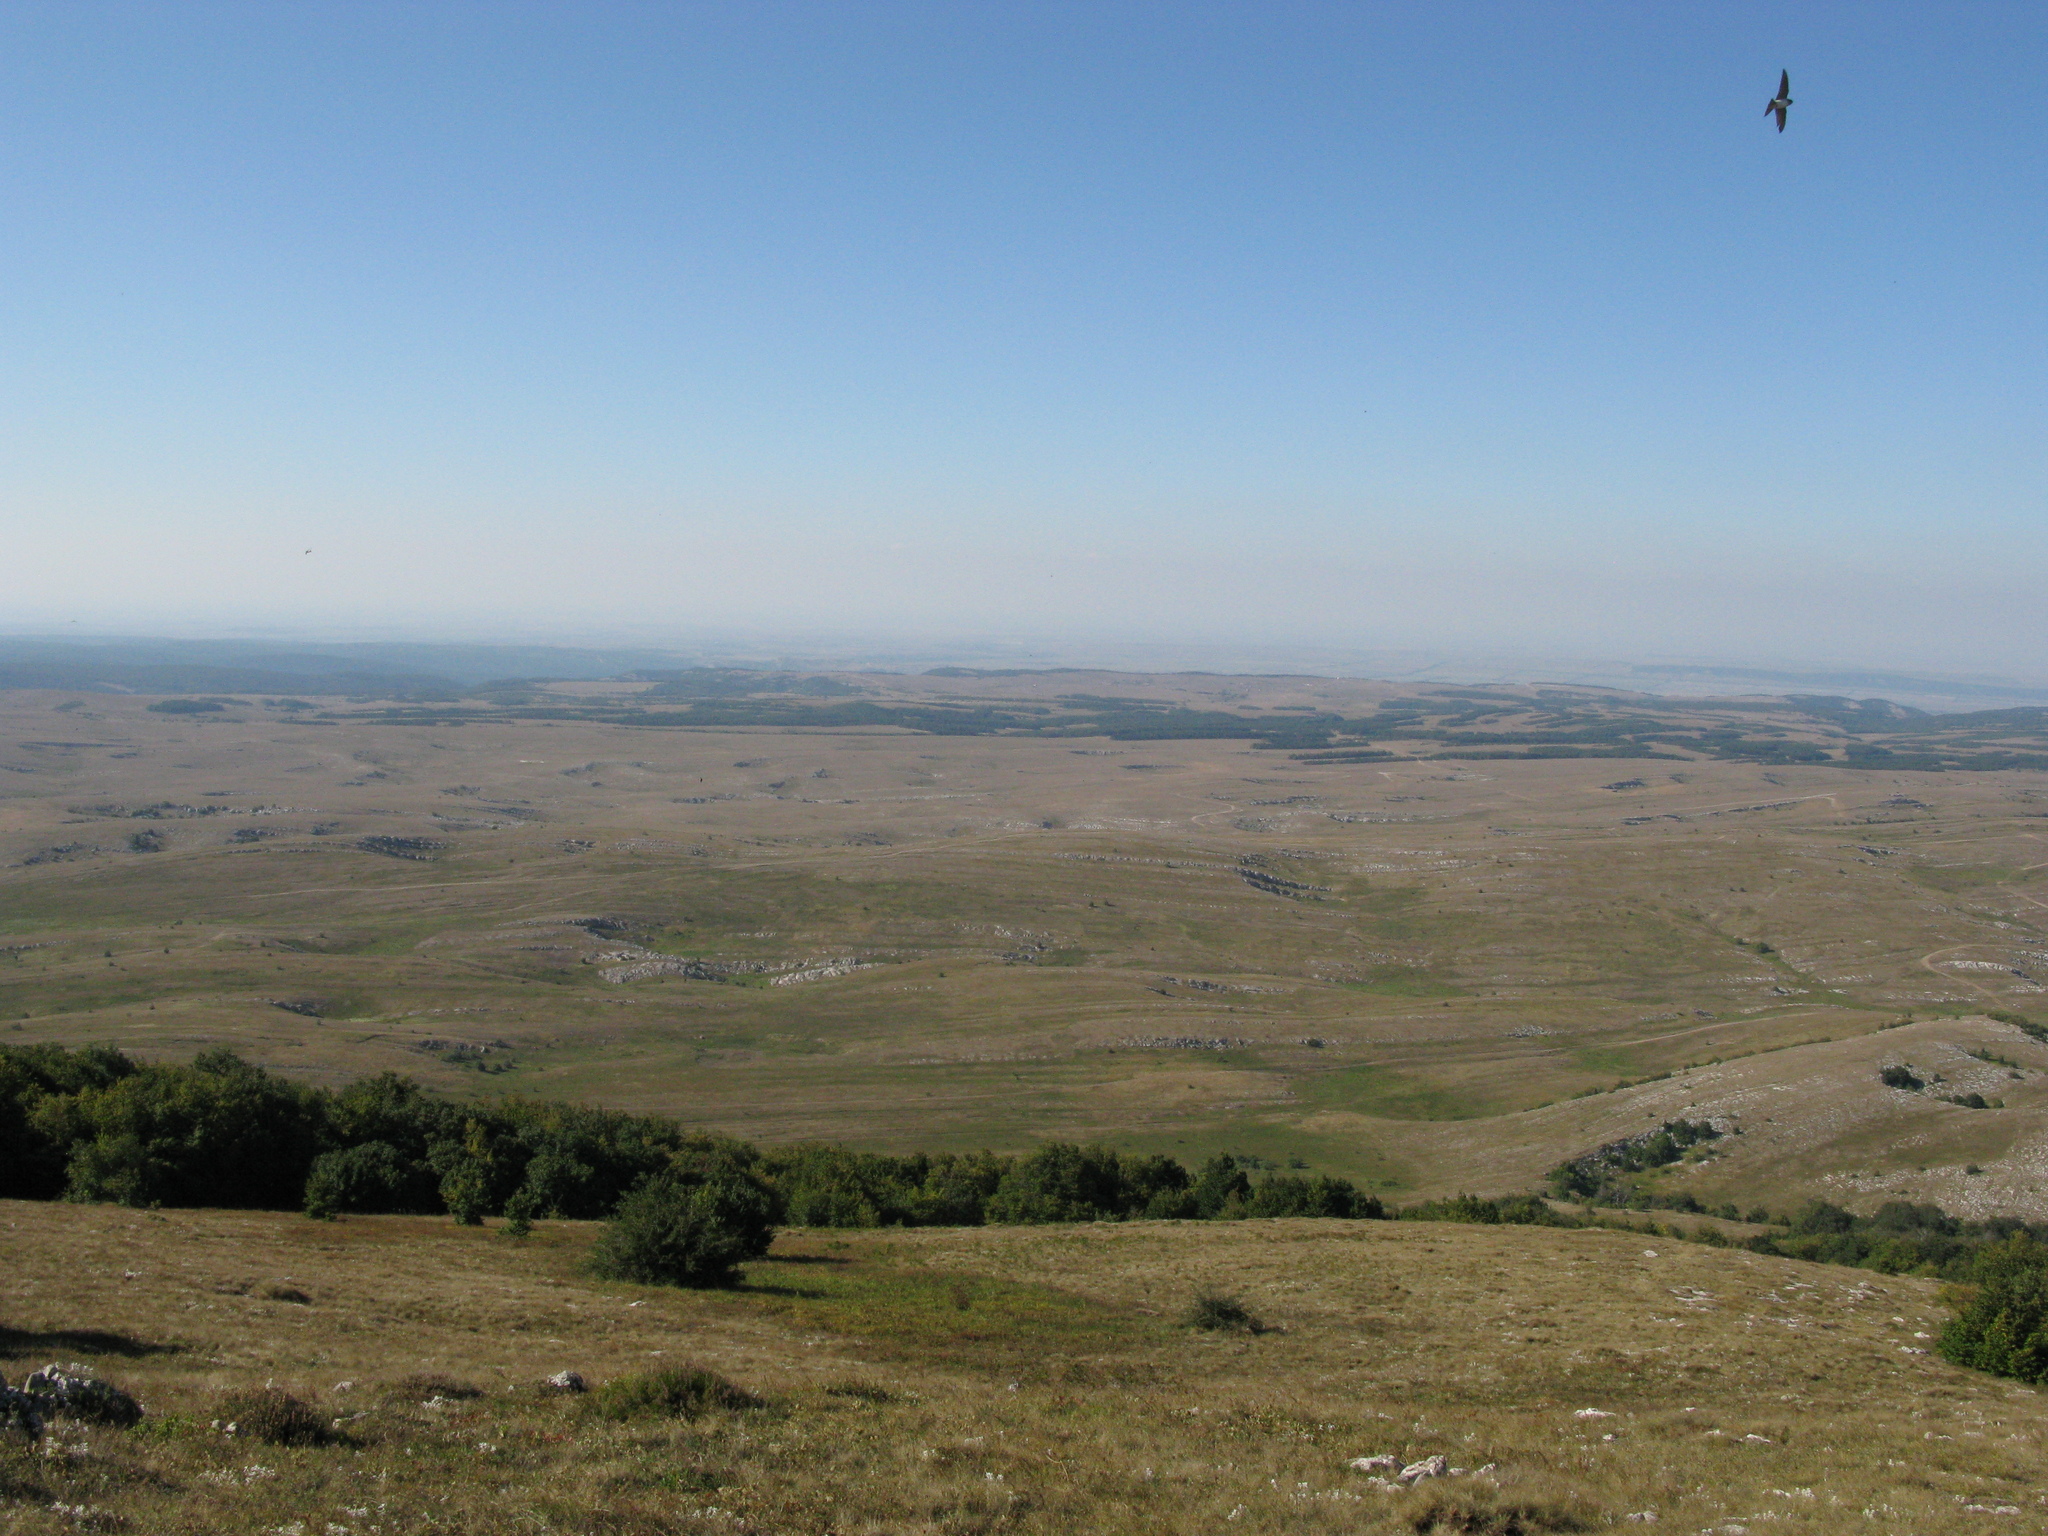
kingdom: Animalia
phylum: Chordata
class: Aves
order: Passeriformes
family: Hirundinidae
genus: Riparia
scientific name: Riparia riparia
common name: Sand martin
